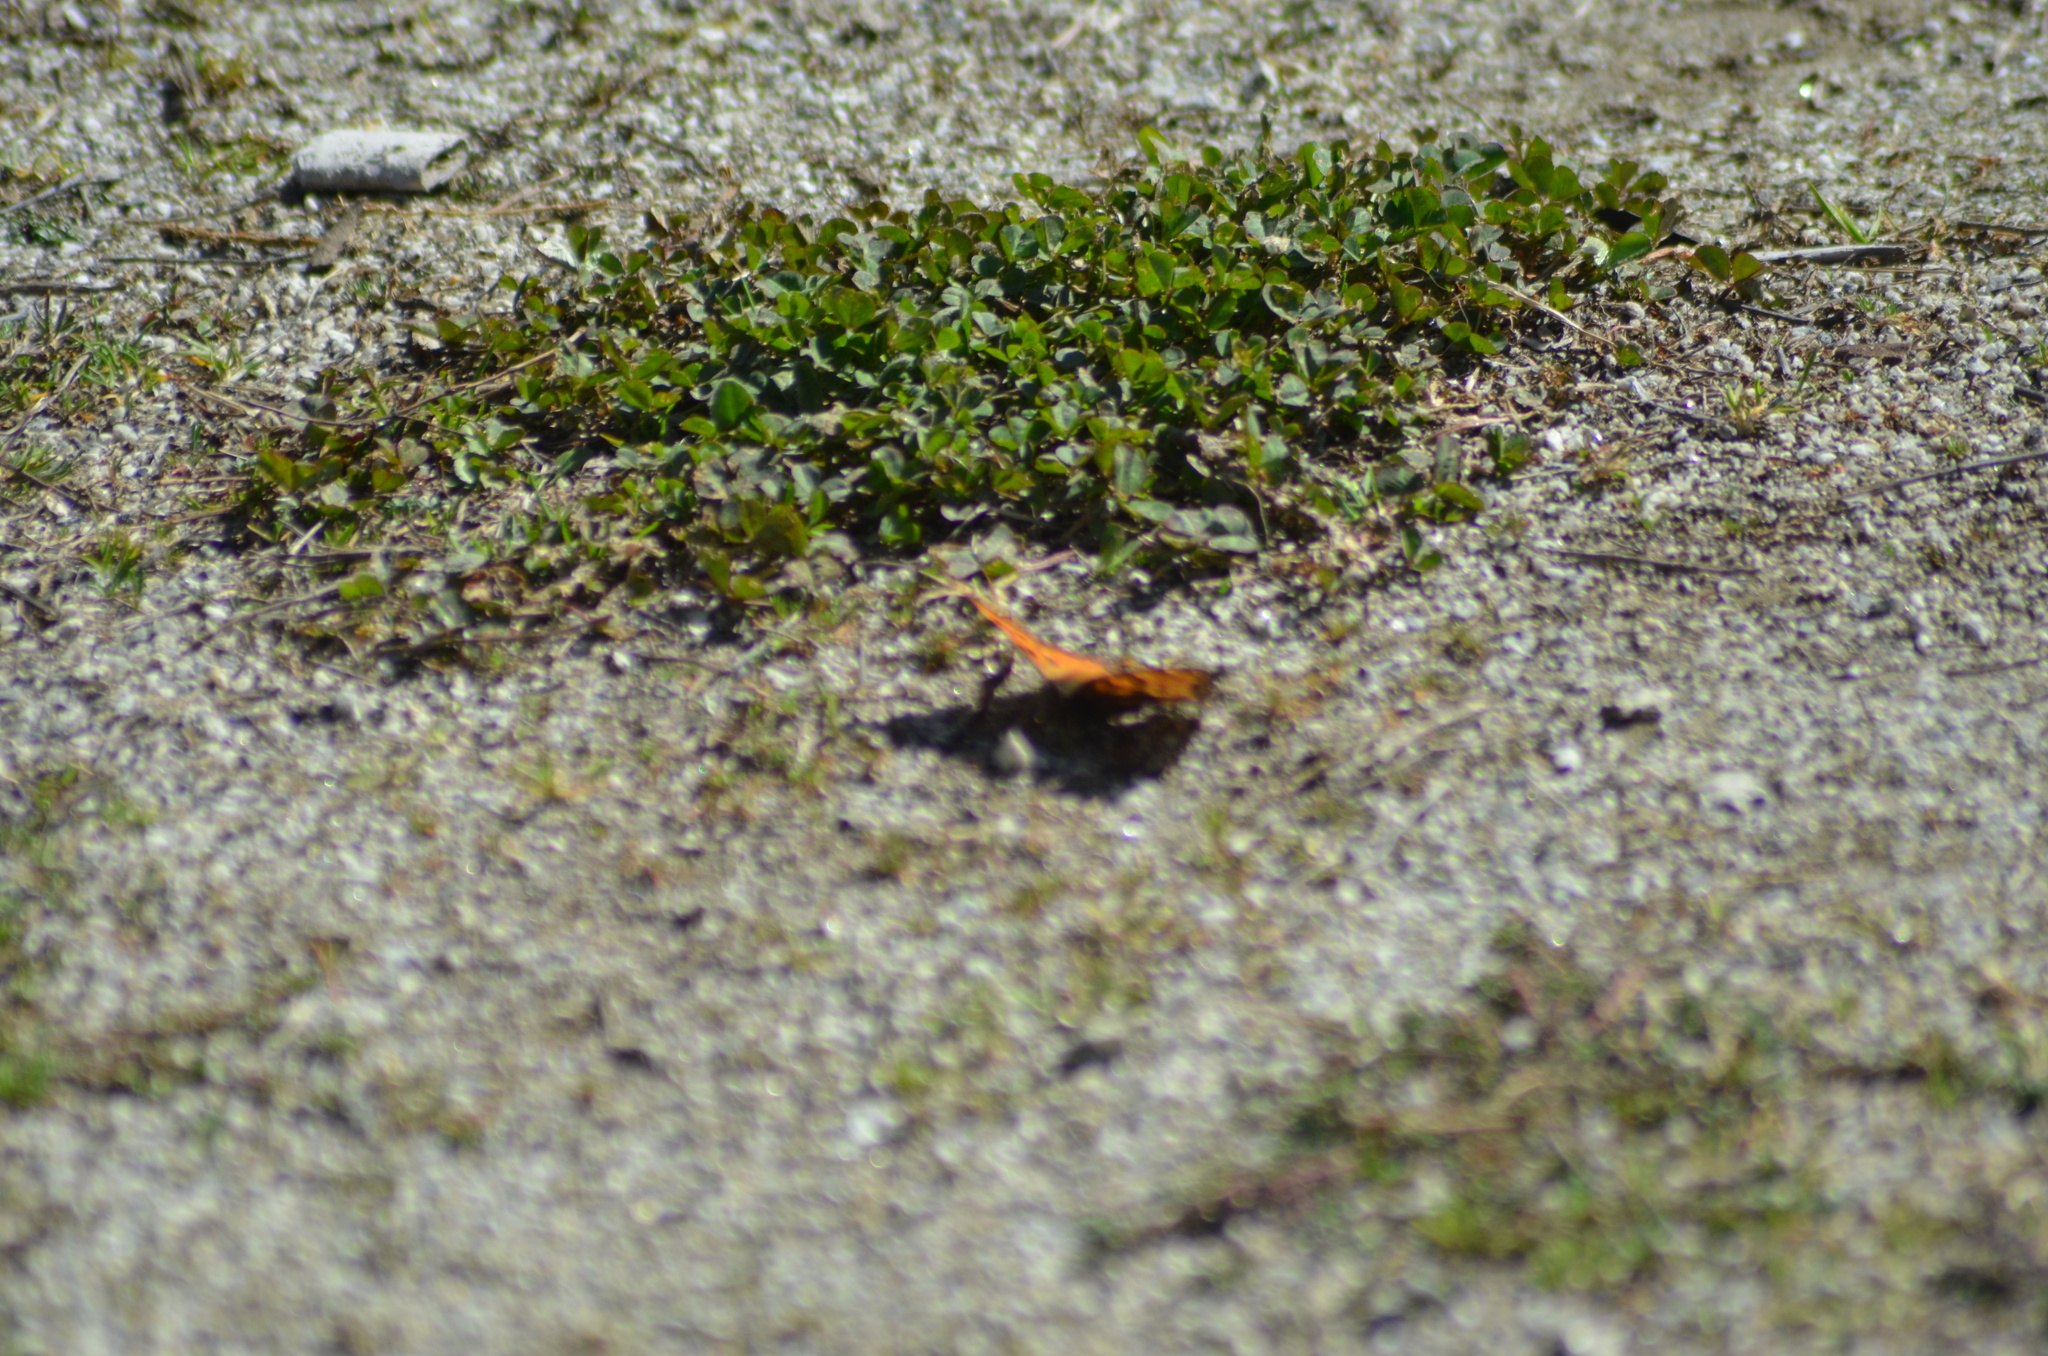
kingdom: Animalia
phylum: Arthropoda
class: Insecta
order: Lepidoptera
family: Nymphalidae
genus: Nymphalis
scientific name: Nymphalis polychloros
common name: Large tortoiseshell
